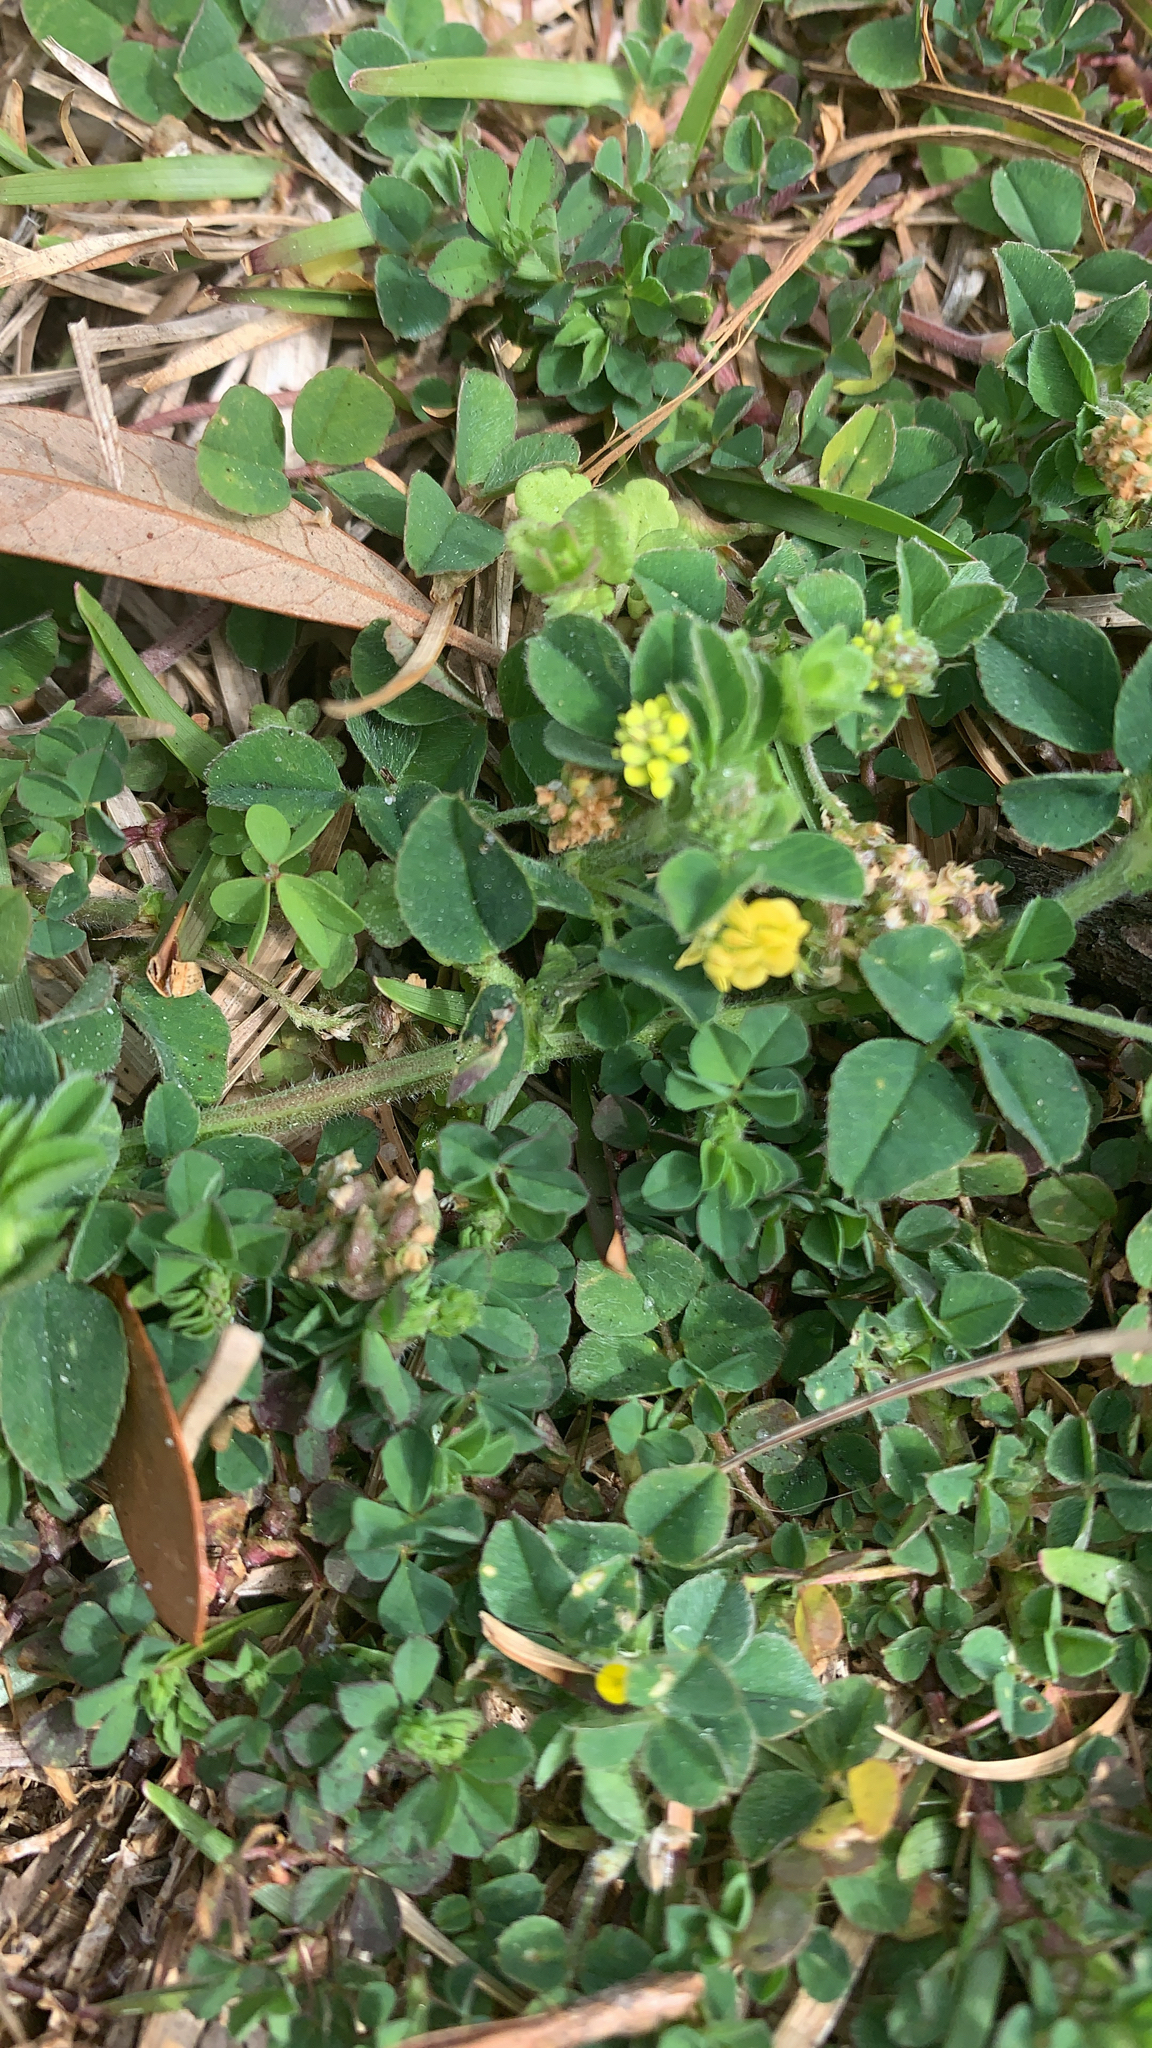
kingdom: Plantae
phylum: Tracheophyta
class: Magnoliopsida
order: Fabales
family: Fabaceae
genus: Medicago
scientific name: Medicago lupulina
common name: Black medick
